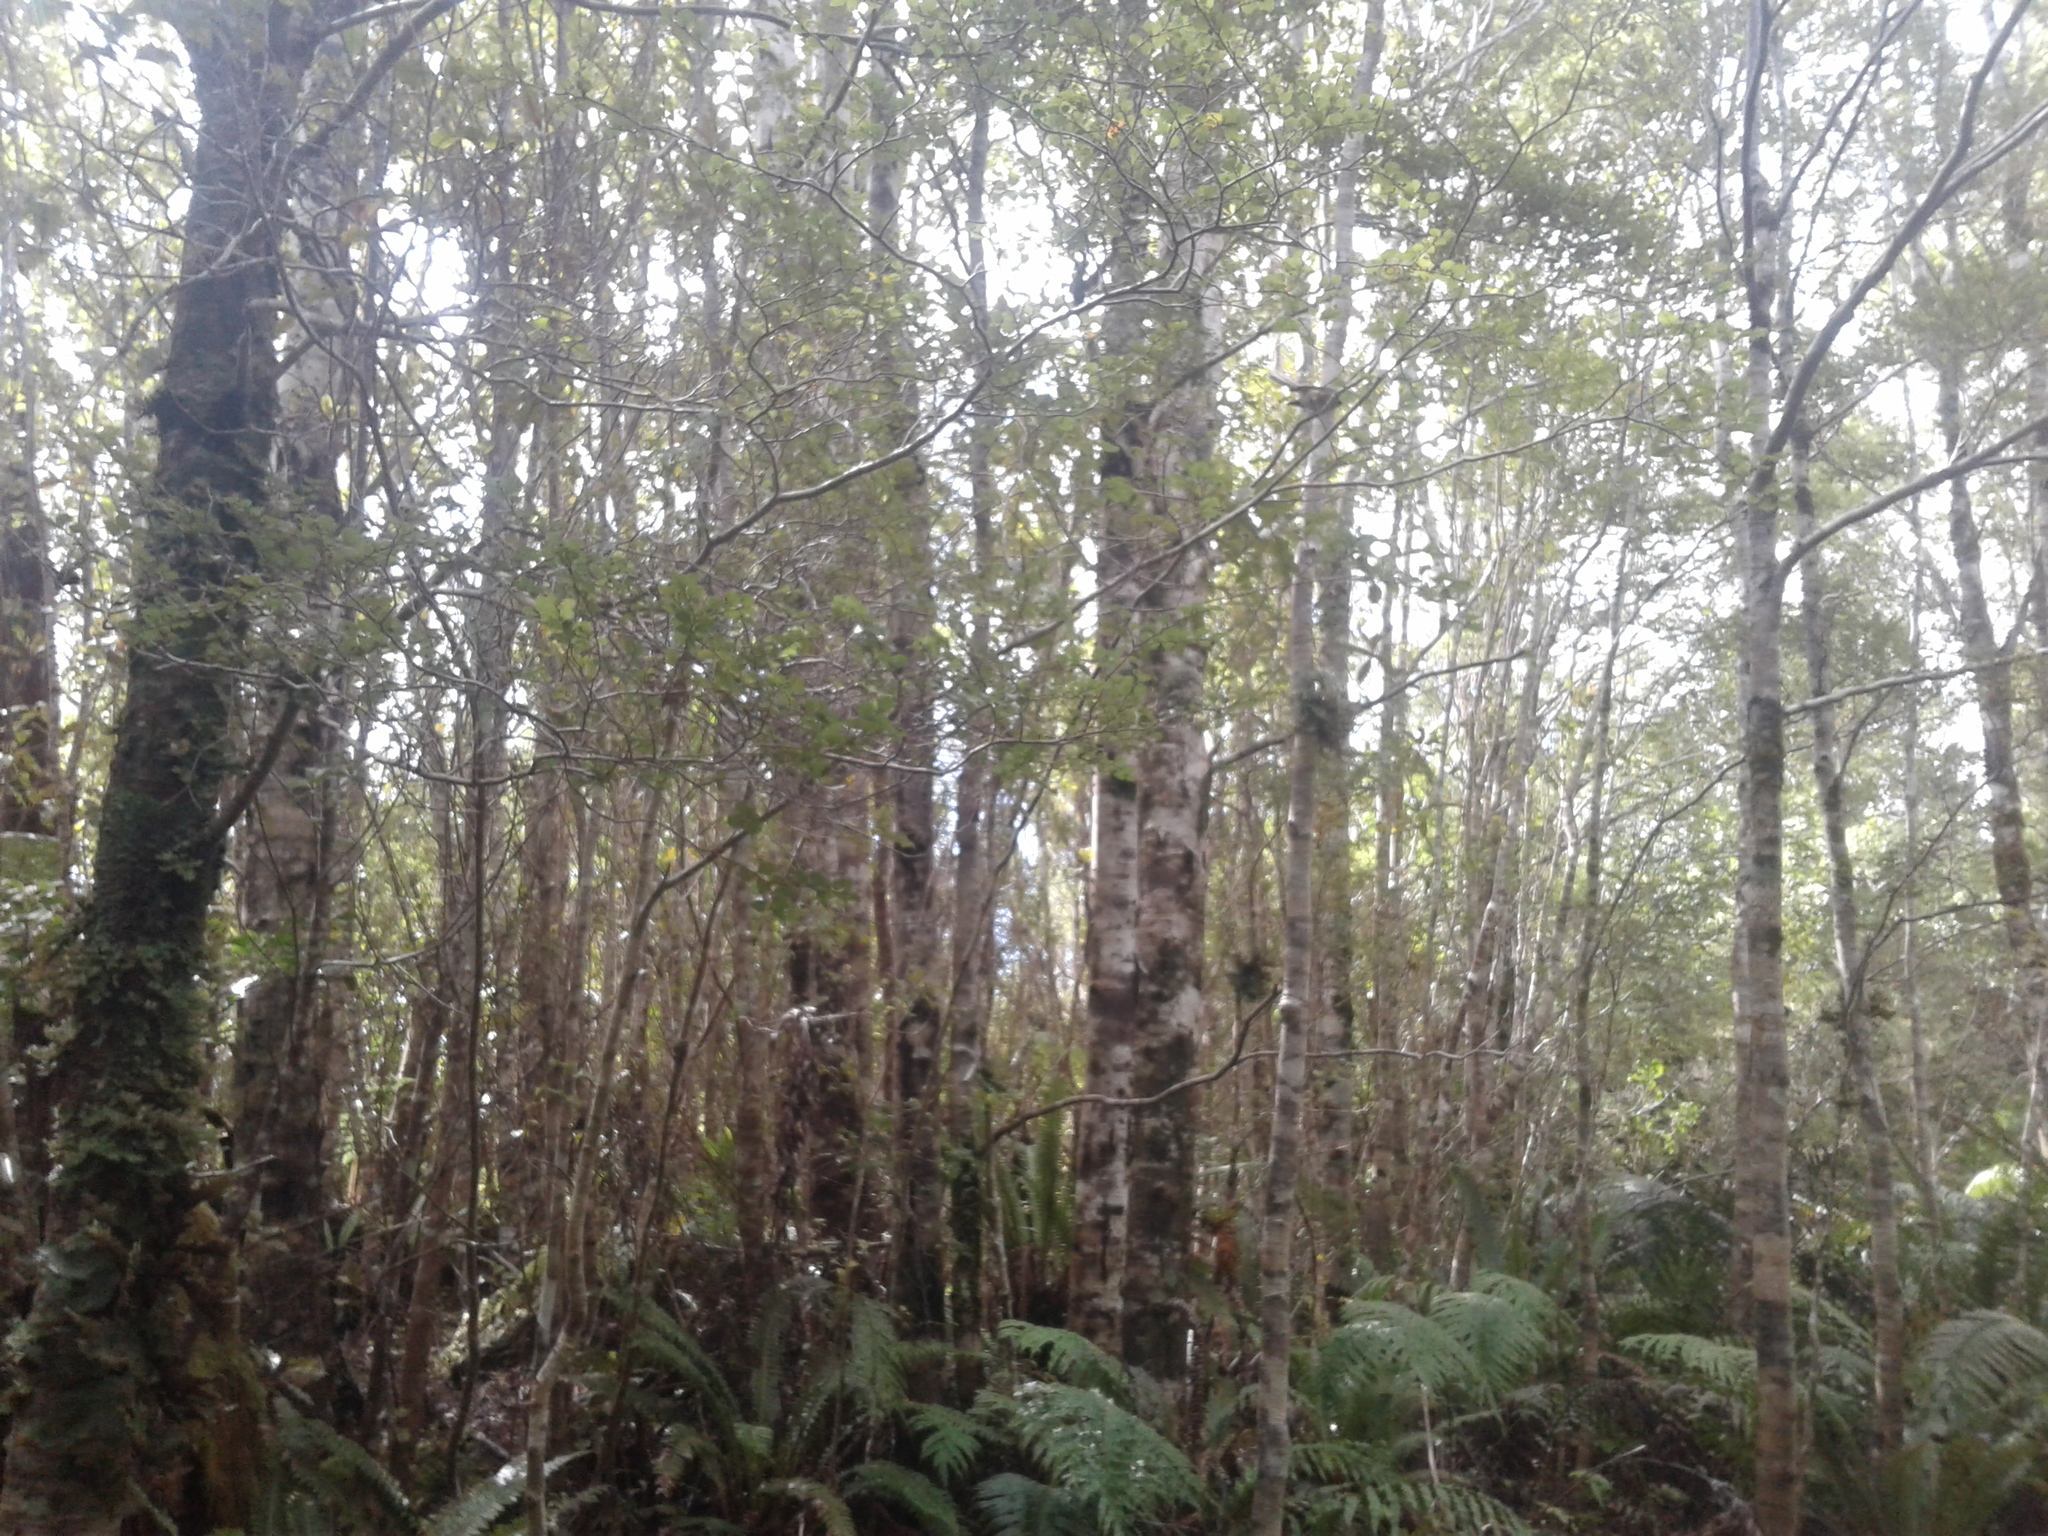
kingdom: Animalia
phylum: Chordata
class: Aves
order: Passeriformes
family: Rhipiduridae
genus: Rhipidura
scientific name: Rhipidura fuliginosa
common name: New zealand fantail
